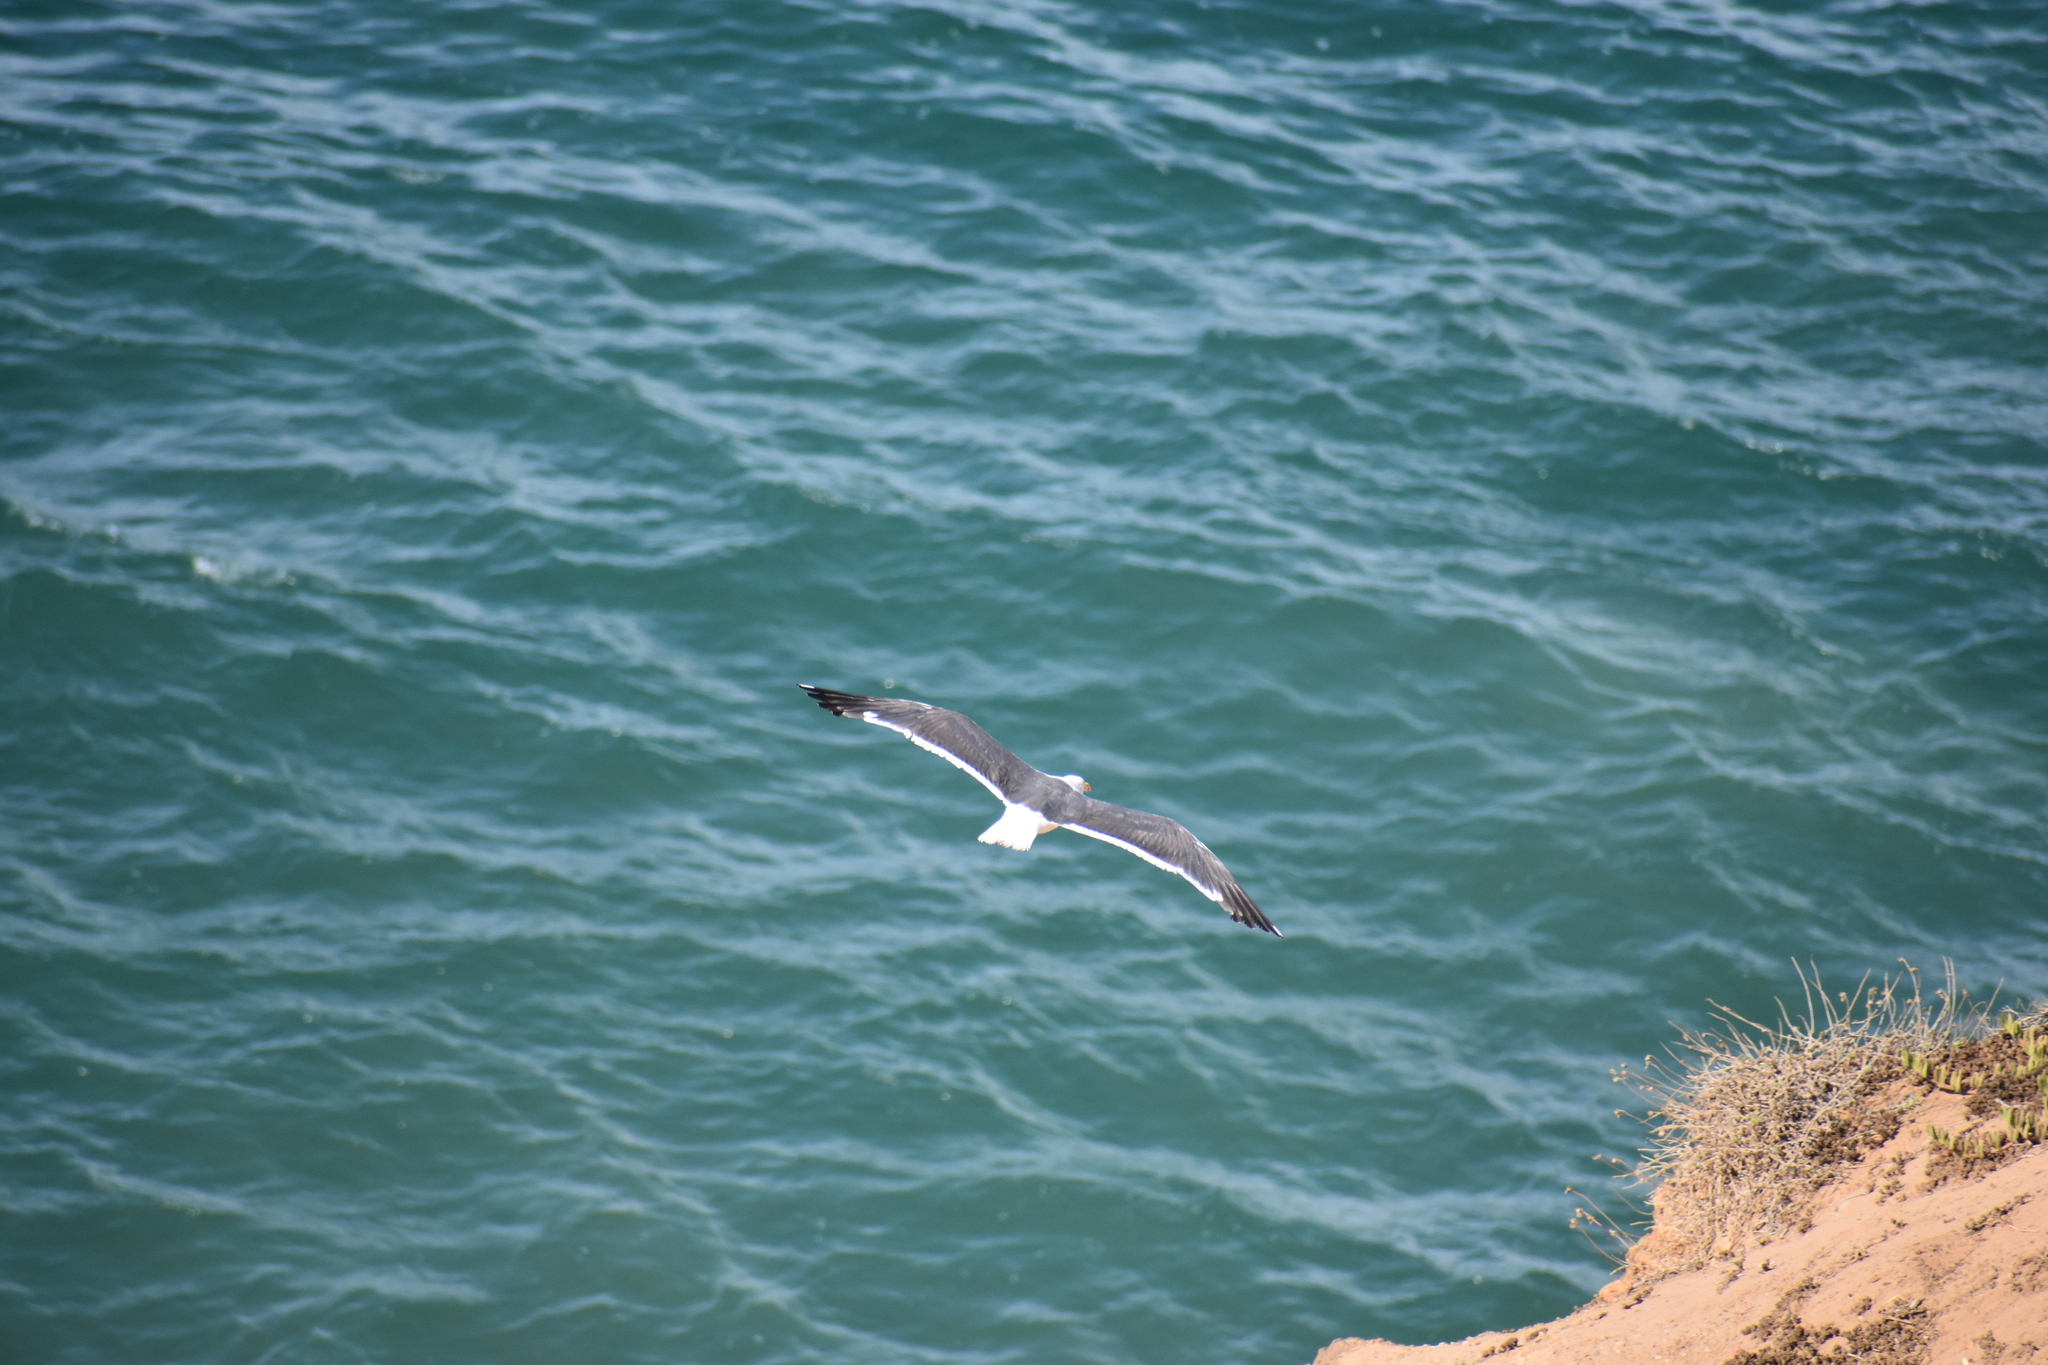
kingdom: Animalia
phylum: Chordata
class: Aves
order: Charadriiformes
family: Laridae
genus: Larus
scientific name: Larus occidentalis
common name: Western gull
